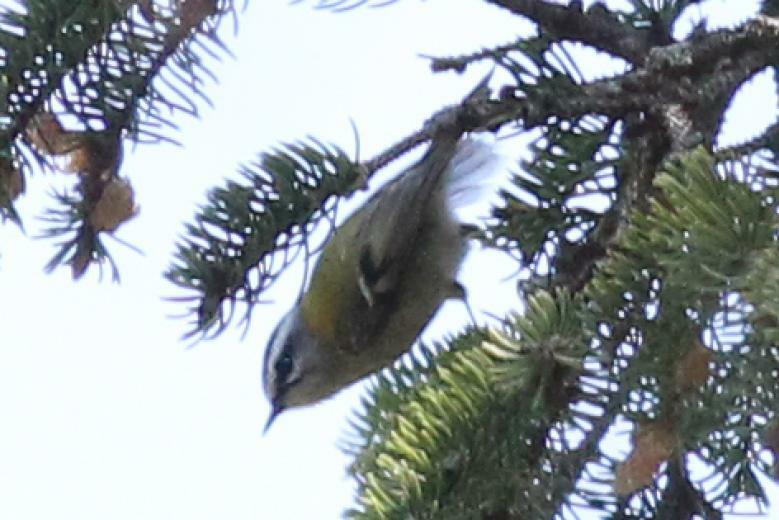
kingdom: Animalia
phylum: Chordata
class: Aves
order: Passeriformes
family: Regulidae
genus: Regulus
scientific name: Regulus ignicapilla
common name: Firecrest
